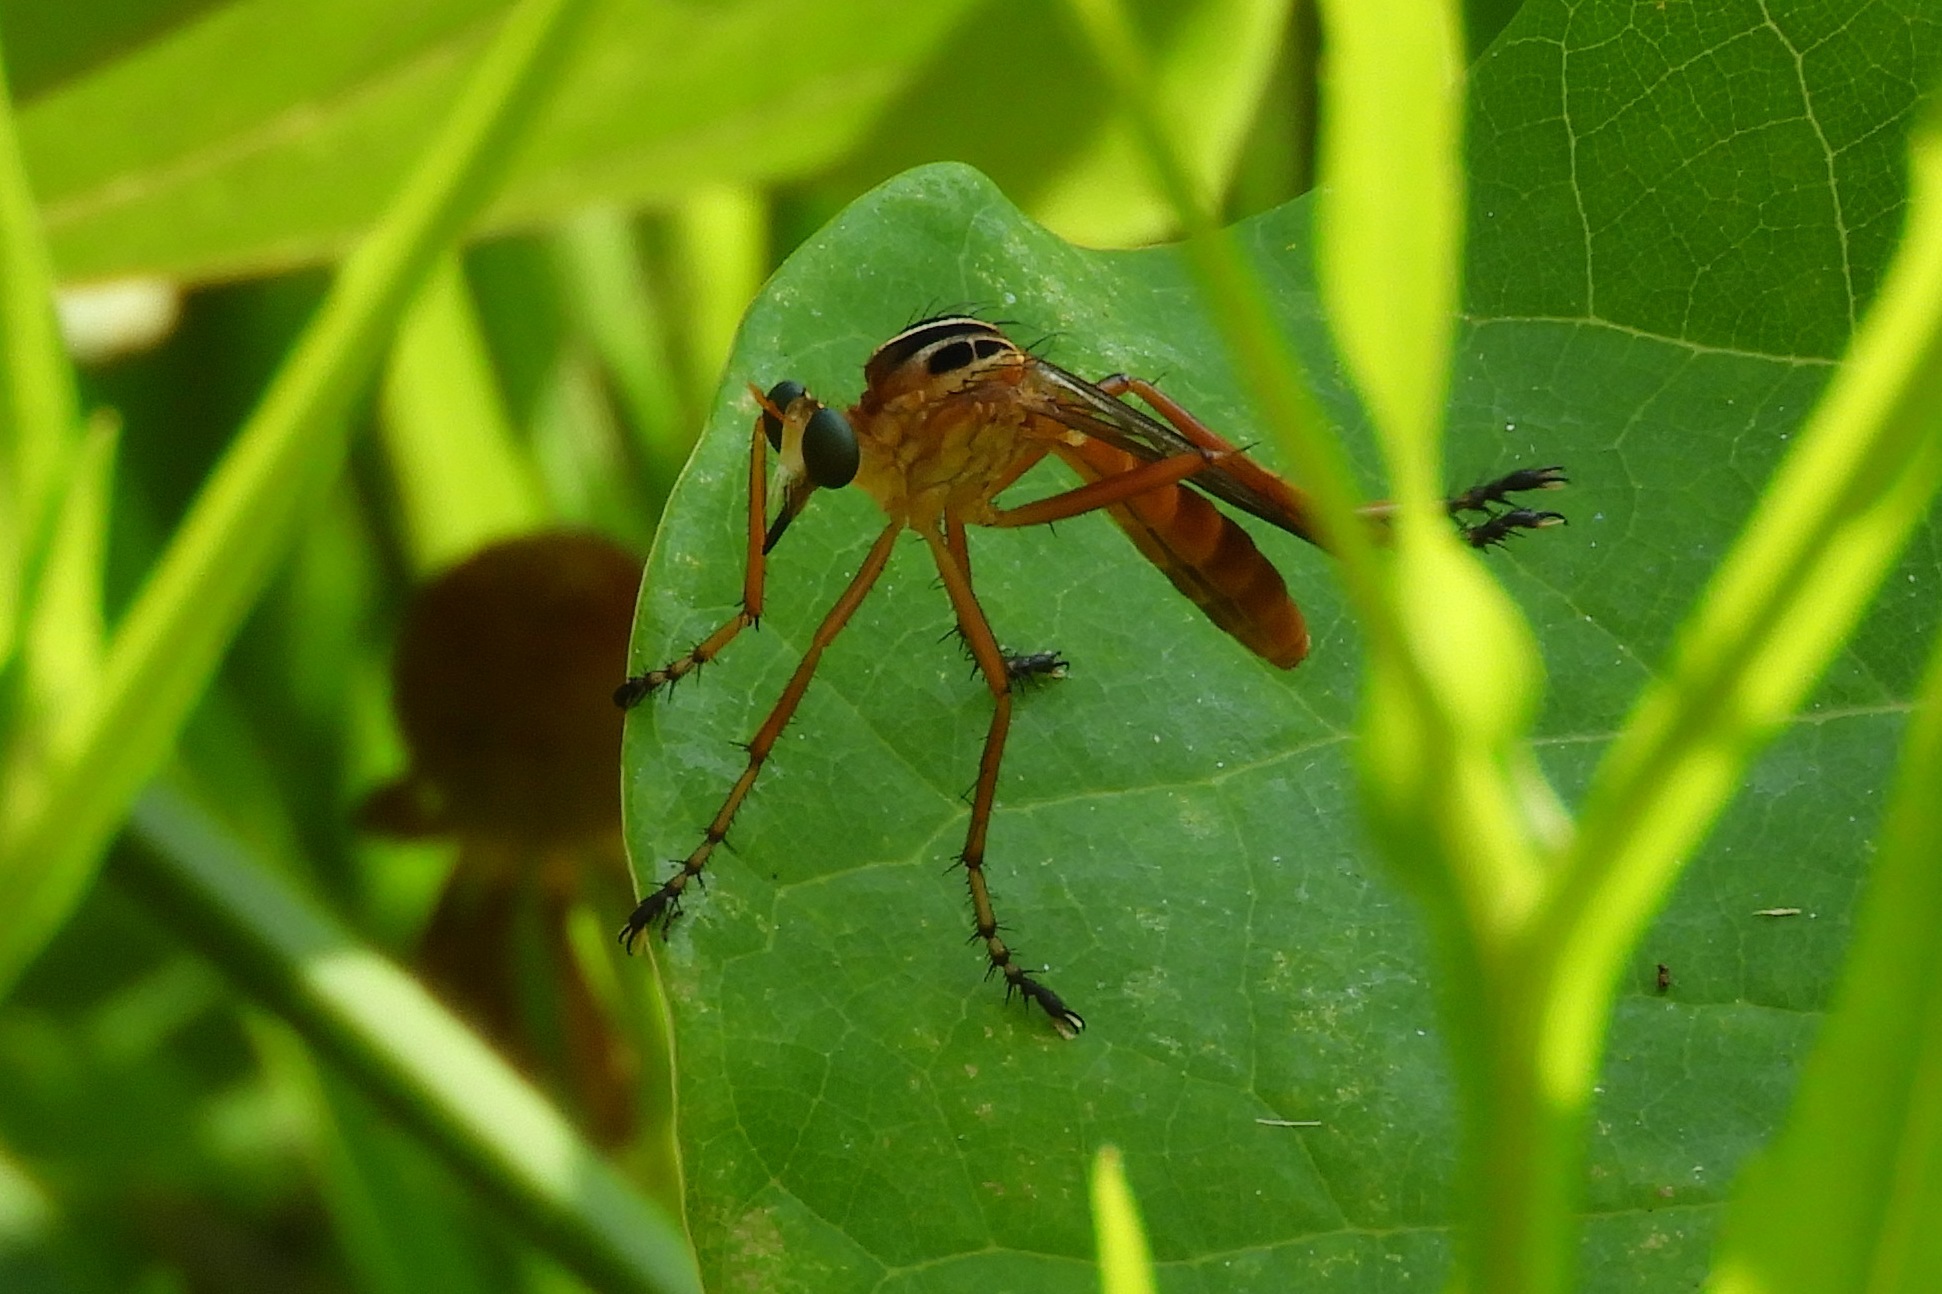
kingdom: Animalia
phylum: Arthropoda
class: Insecta
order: Diptera
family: Asilidae
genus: Diogmites
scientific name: Diogmites neoternatus
